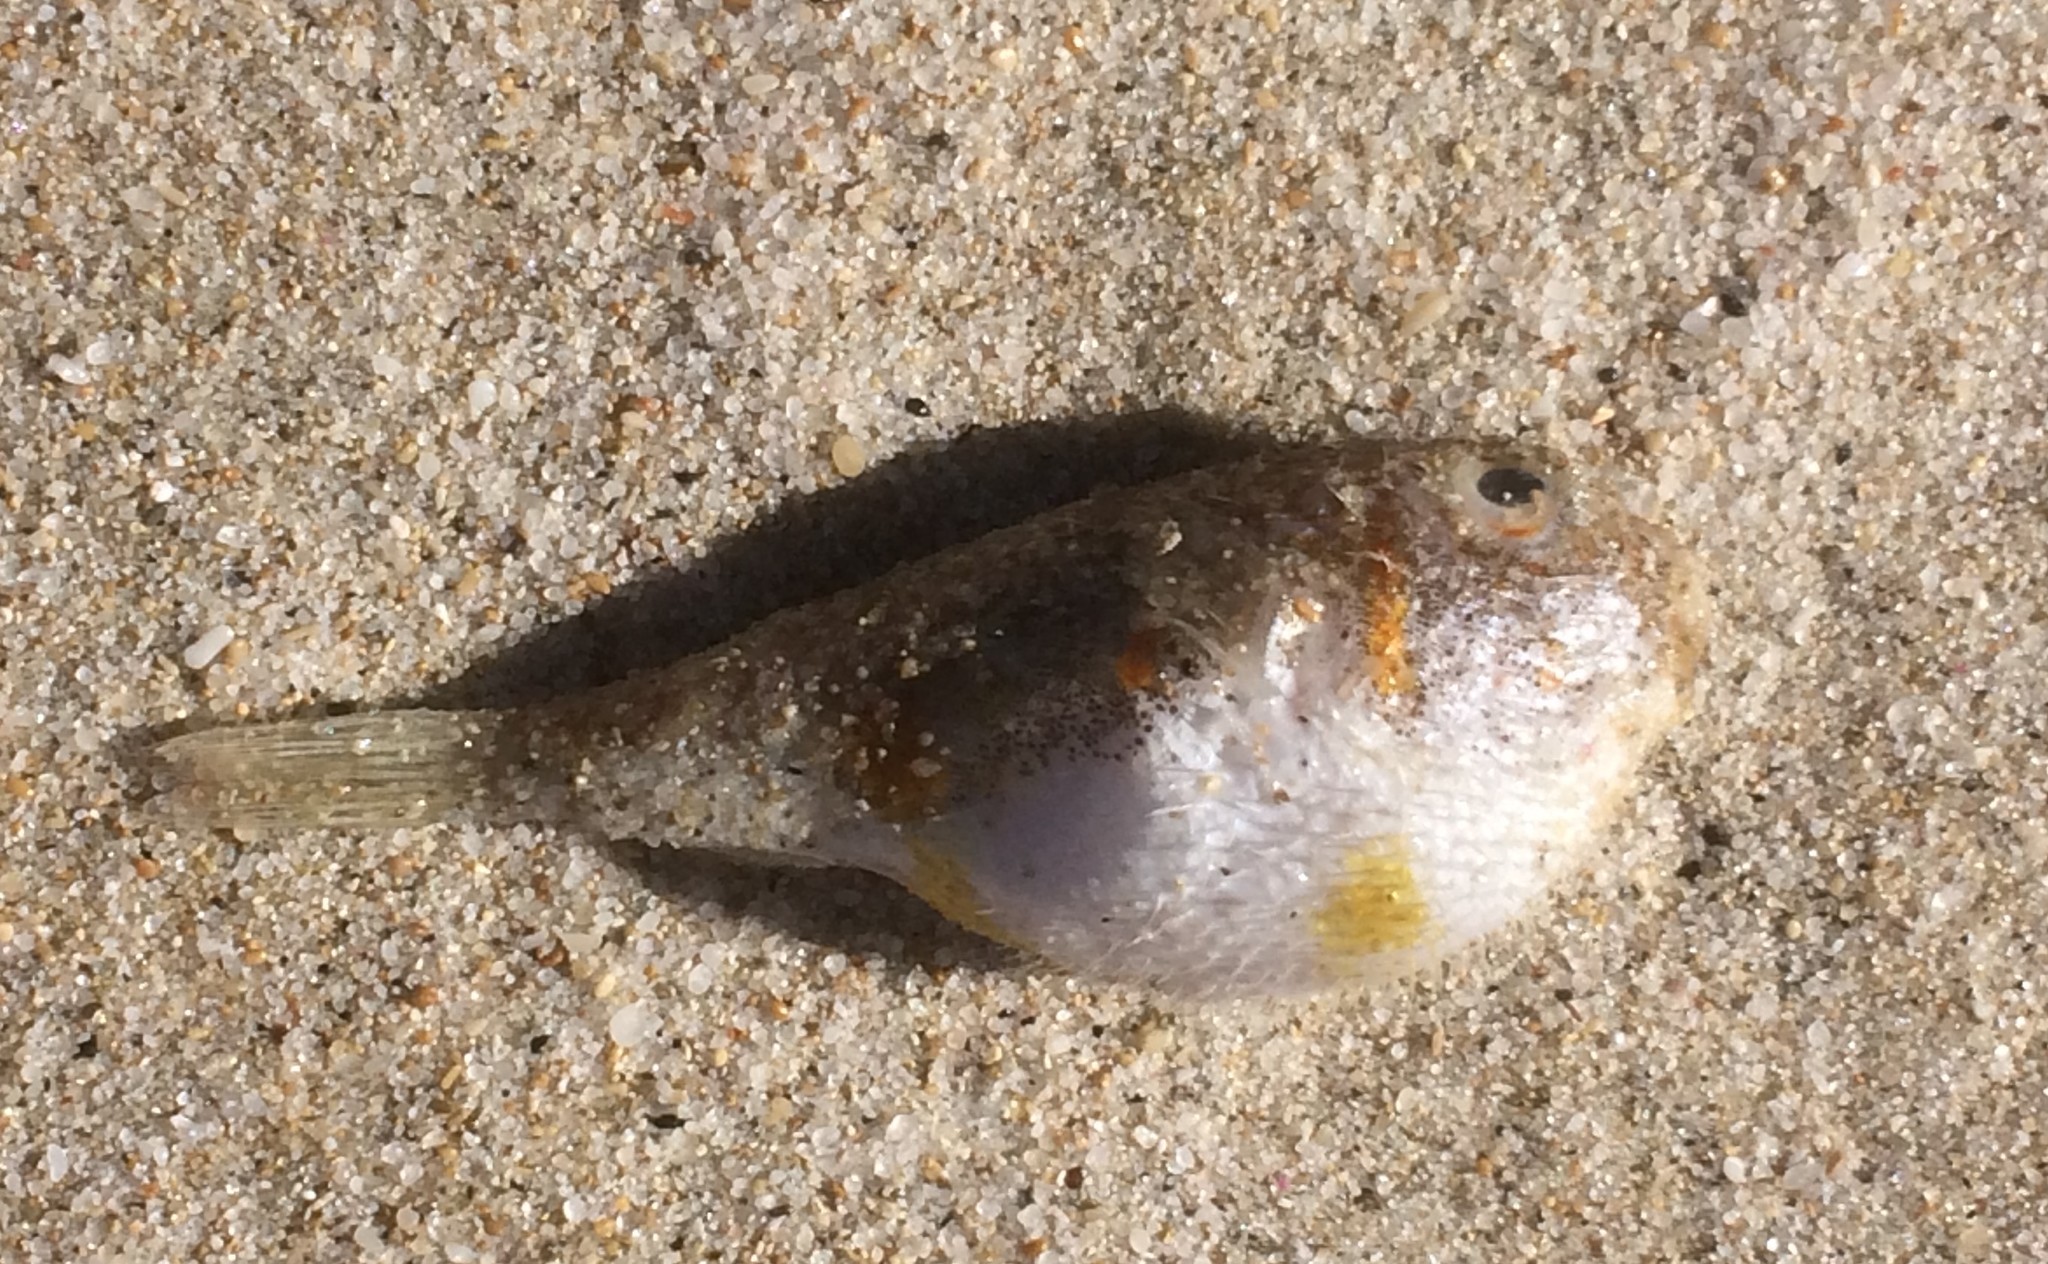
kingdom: Animalia
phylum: Chordata
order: Tetraodontiformes
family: Tetraodontidae
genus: Polyspina
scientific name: Polyspina piosae
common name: Orange-barred pufferfish
